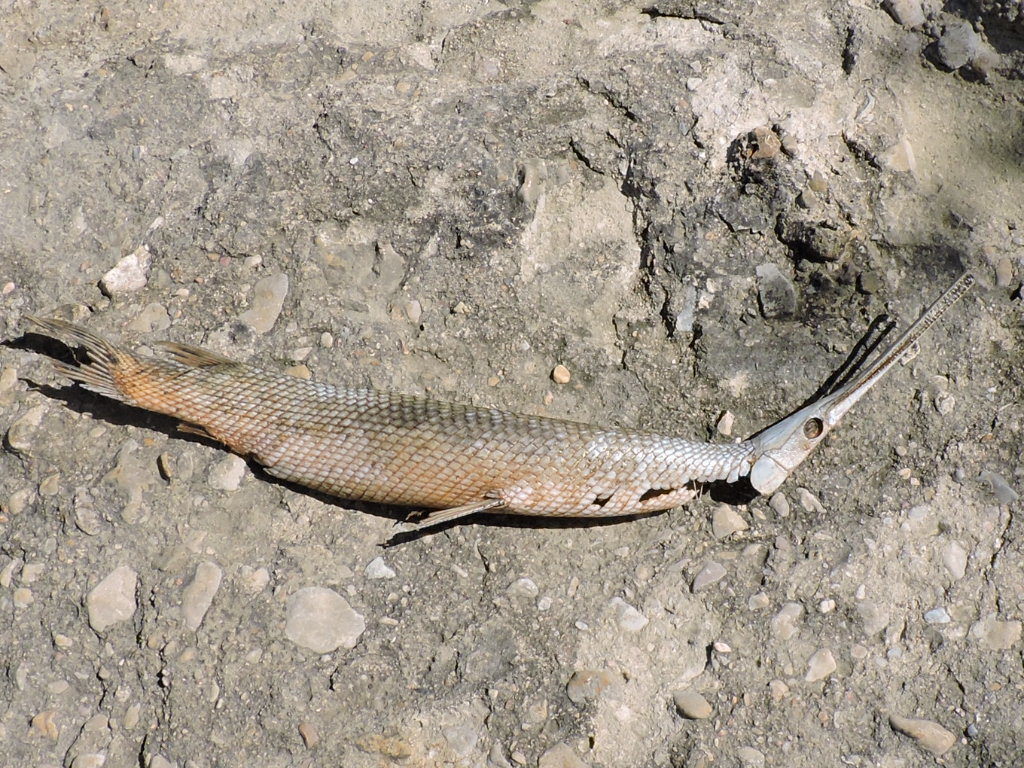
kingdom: Animalia
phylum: Chordata
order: Lepisosteiformes
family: Lepisosteidae
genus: Lepisosteus
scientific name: Lepisosteus osseus
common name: Longnose gar
